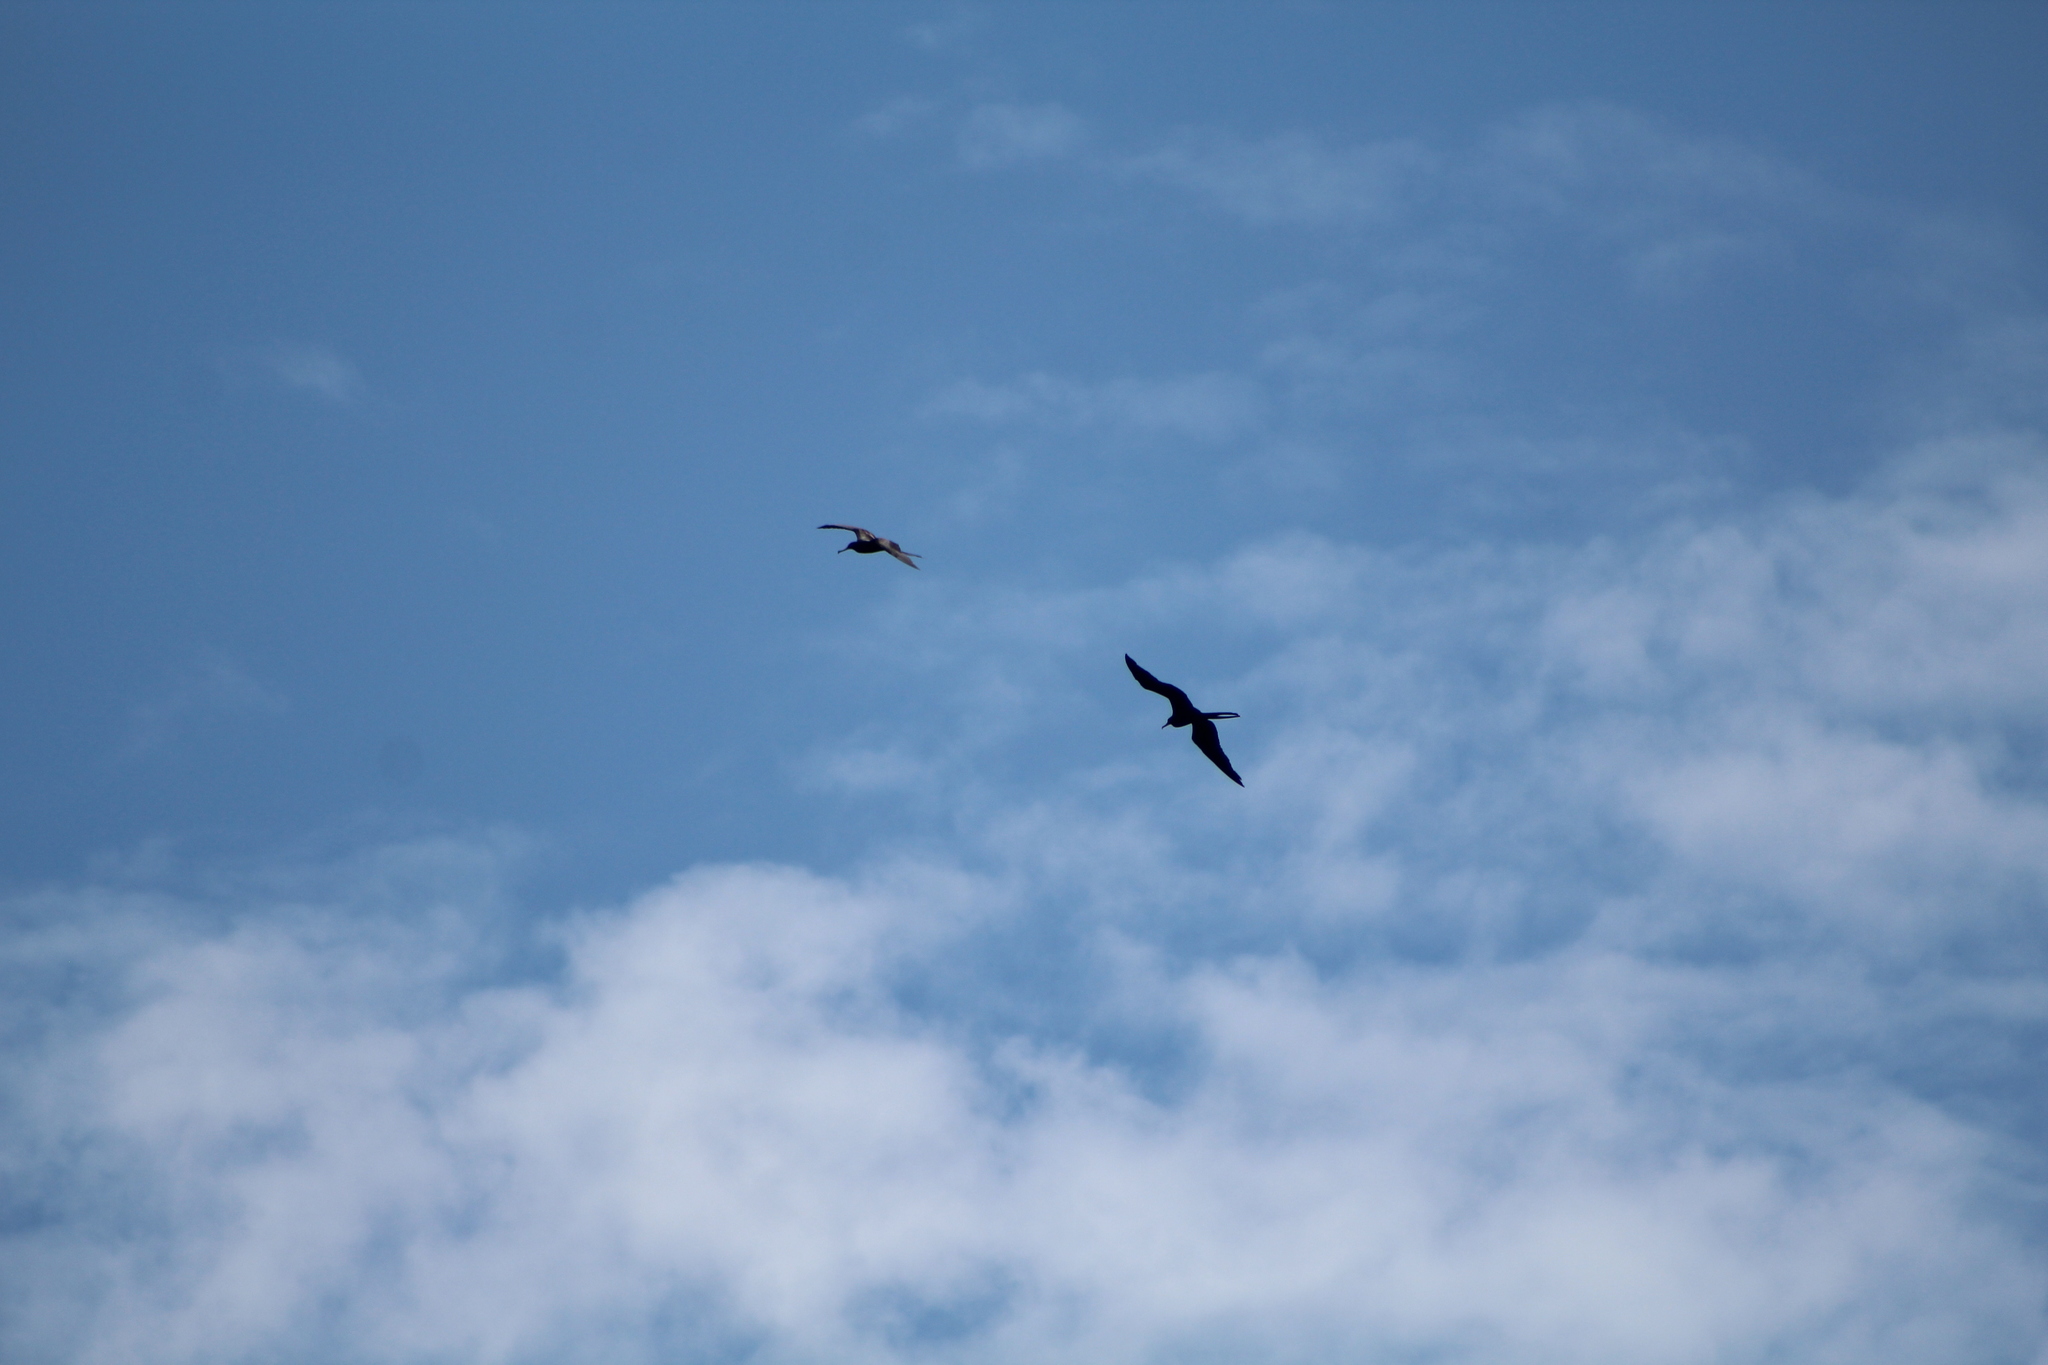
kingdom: Animalia
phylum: Chordata
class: Aves
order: Suliformes
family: Fregatidae
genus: Fregata
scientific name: Fregata magnificens
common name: Magnificent frigatebird
